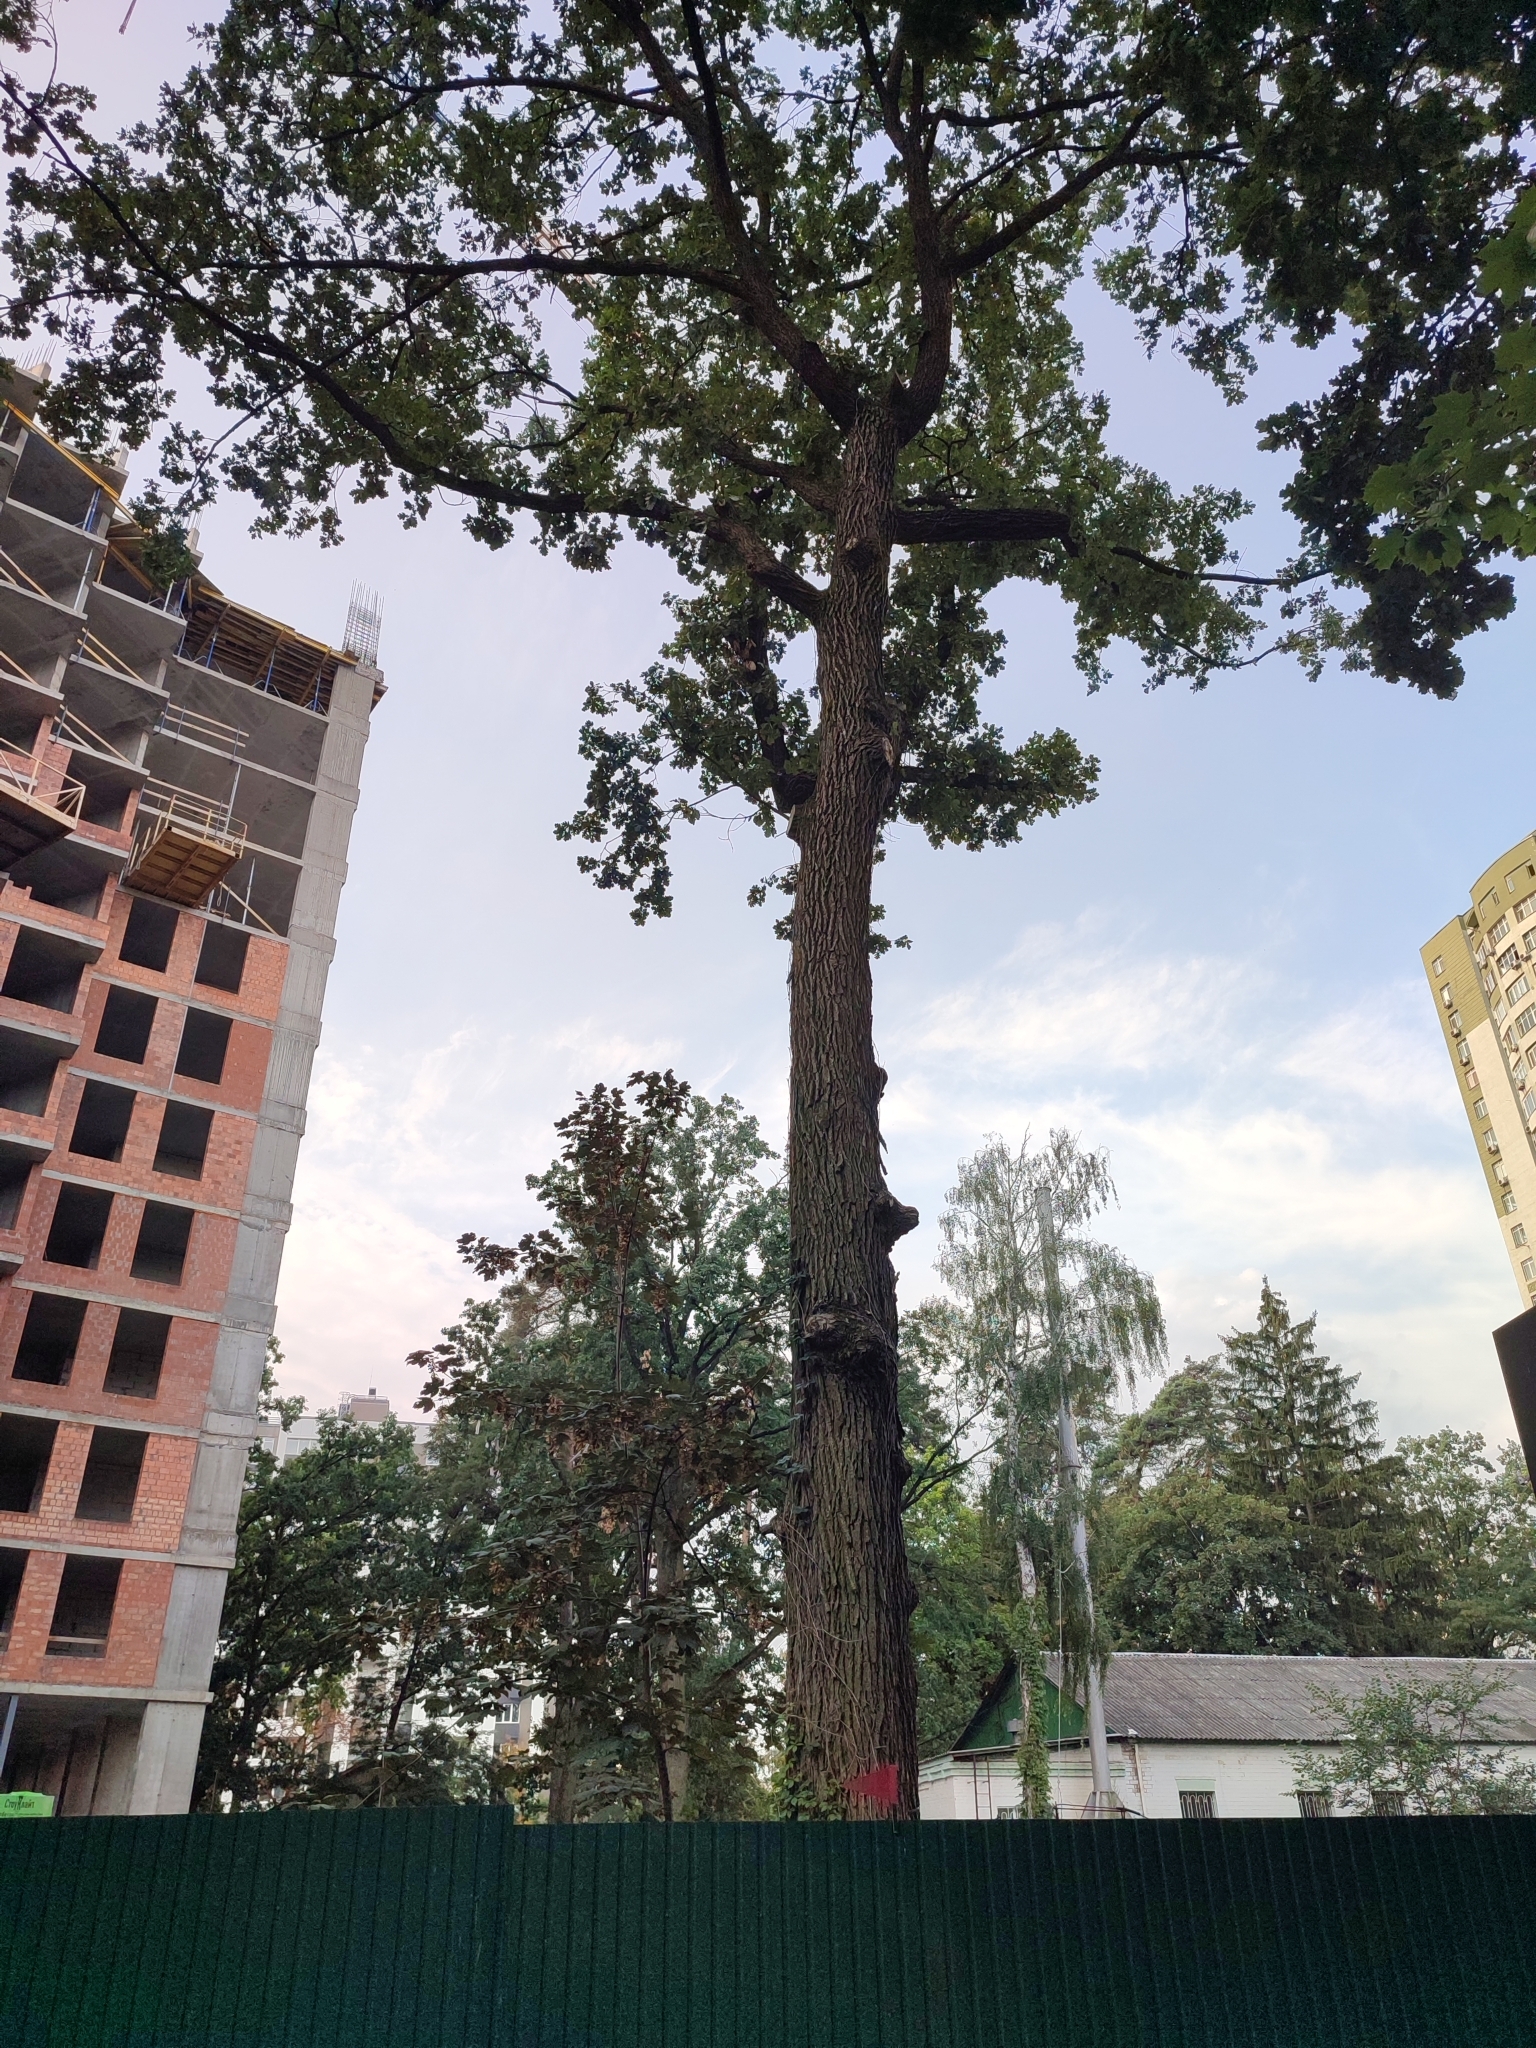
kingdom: Plantae
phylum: Tracheophyta
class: Magnoliopsida
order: Fagales
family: Fagaceae
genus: Quercus
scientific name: Quercus robur
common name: Pedunculate oak
